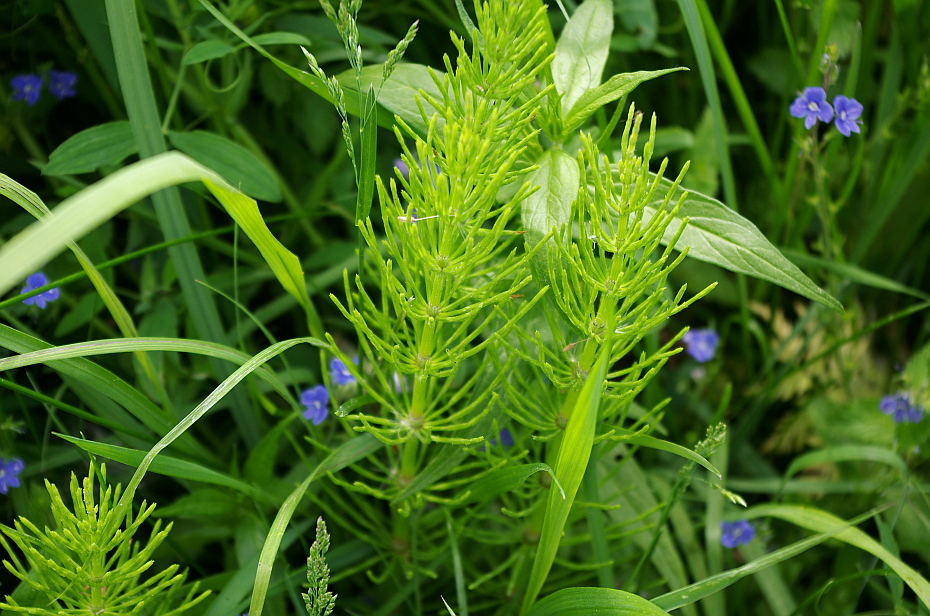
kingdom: Plantae
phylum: Tracheophyta
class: Polypodiopsida
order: Equisetales
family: Equisetaceae
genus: Equisetum
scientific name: Equisetum arvense
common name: Field horsetail
